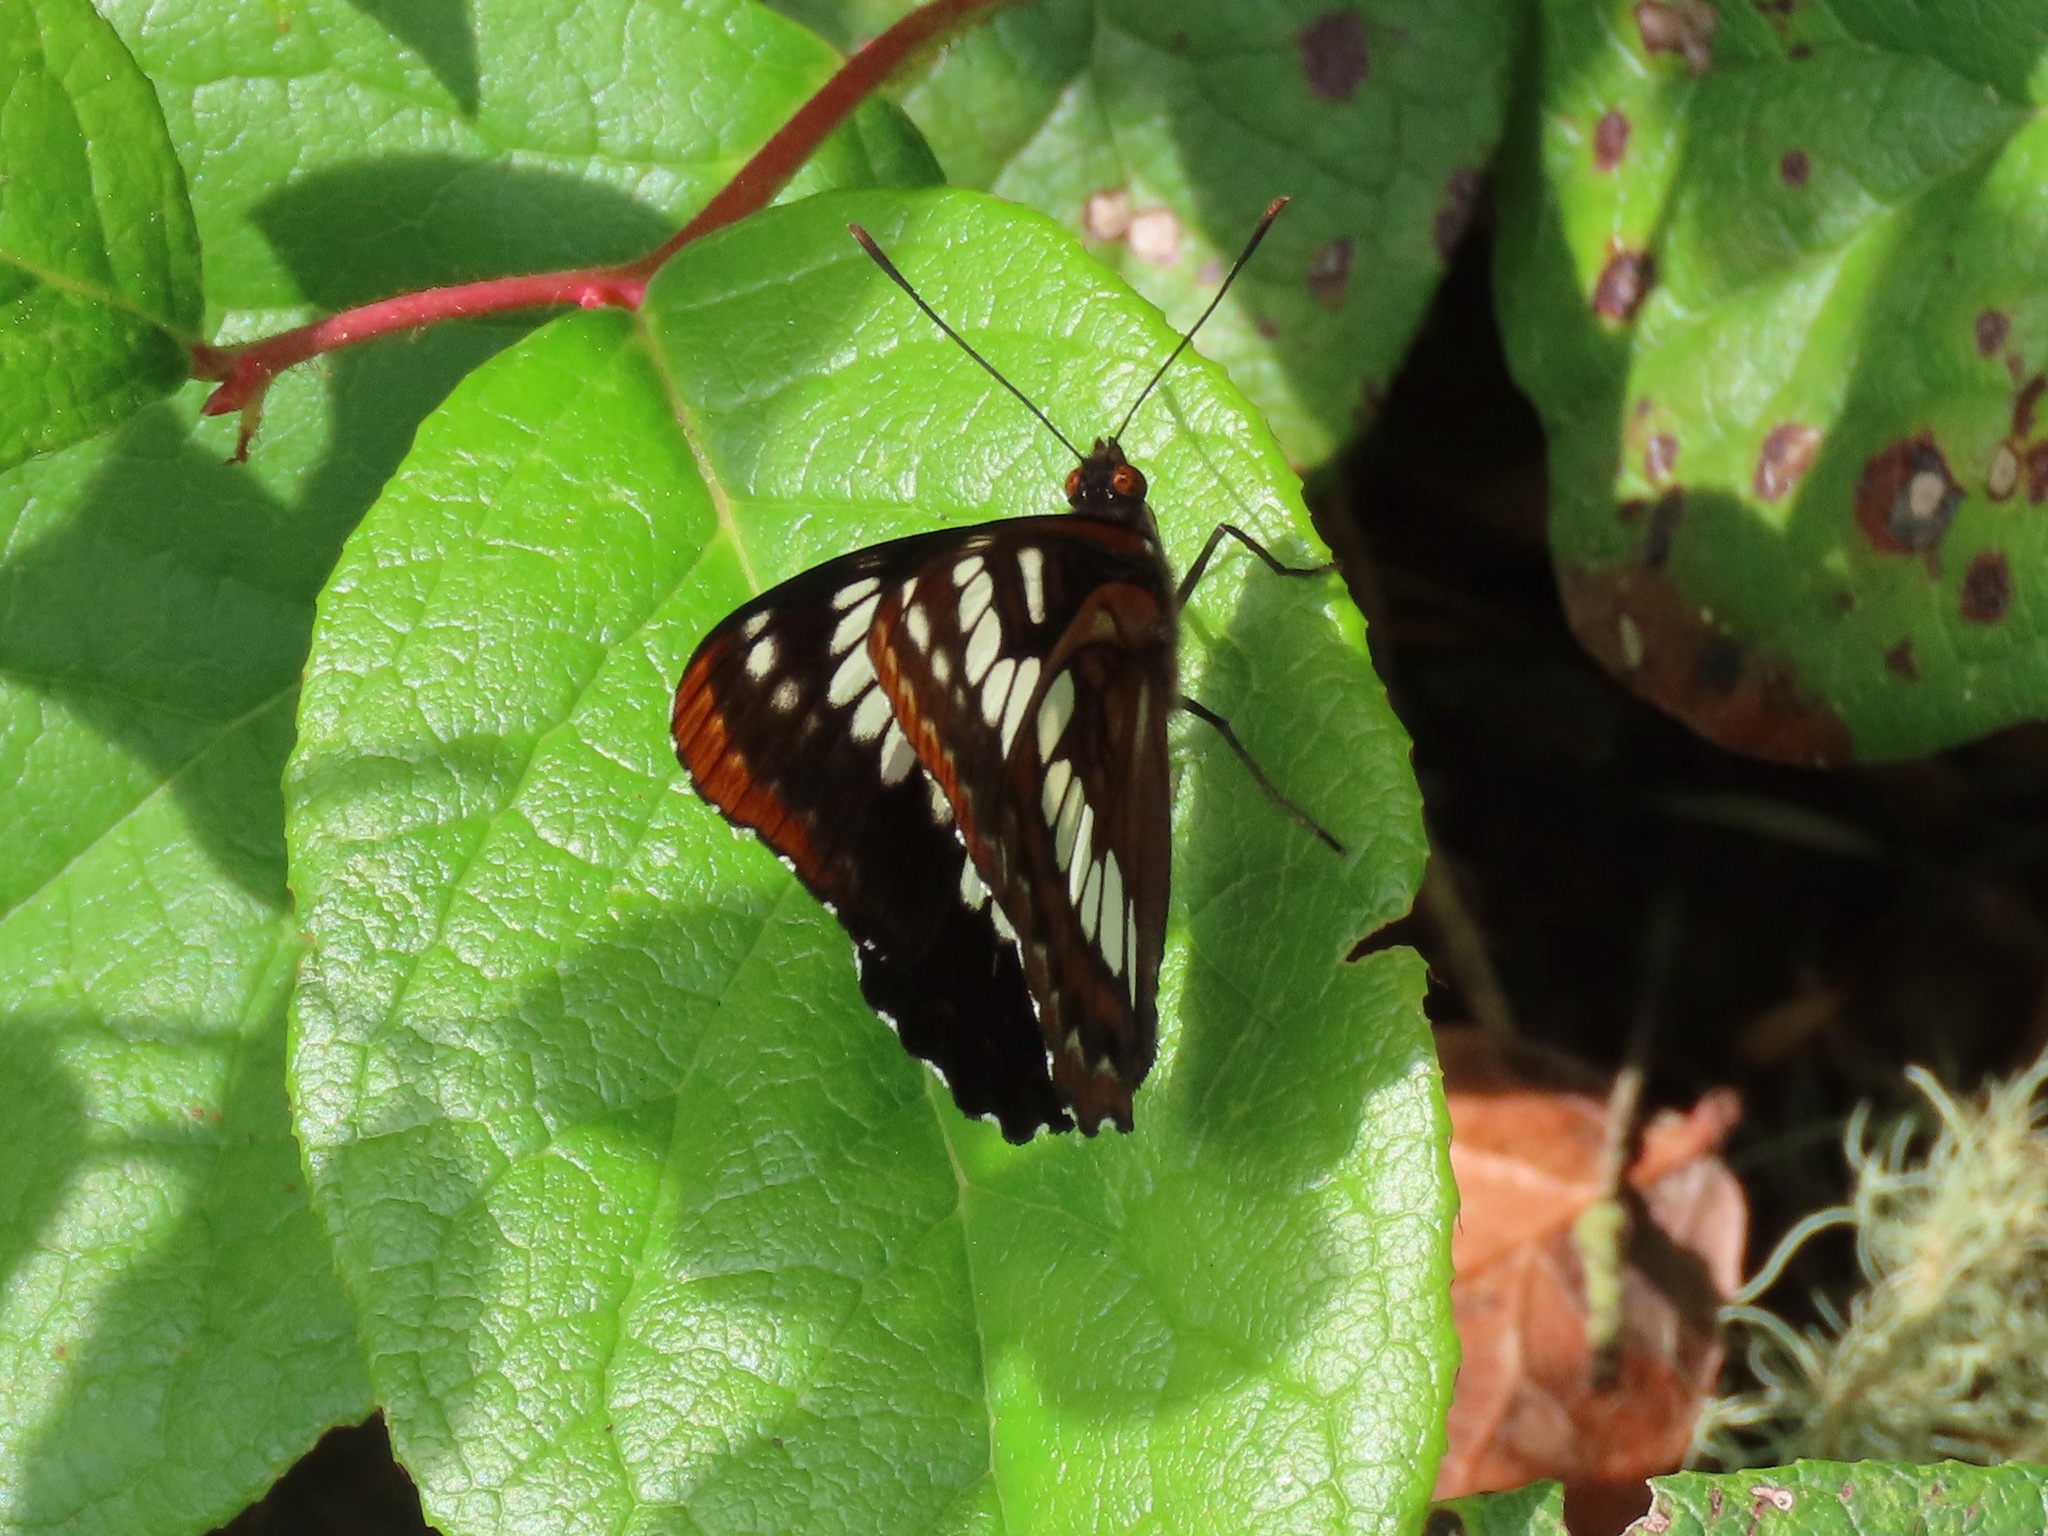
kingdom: Animalia
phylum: Arthropoda
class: Insecta
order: Lepidoptera
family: Nymphalidae
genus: Limenitis
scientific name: Limenitis lorquini
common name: Lorquin's admiral
